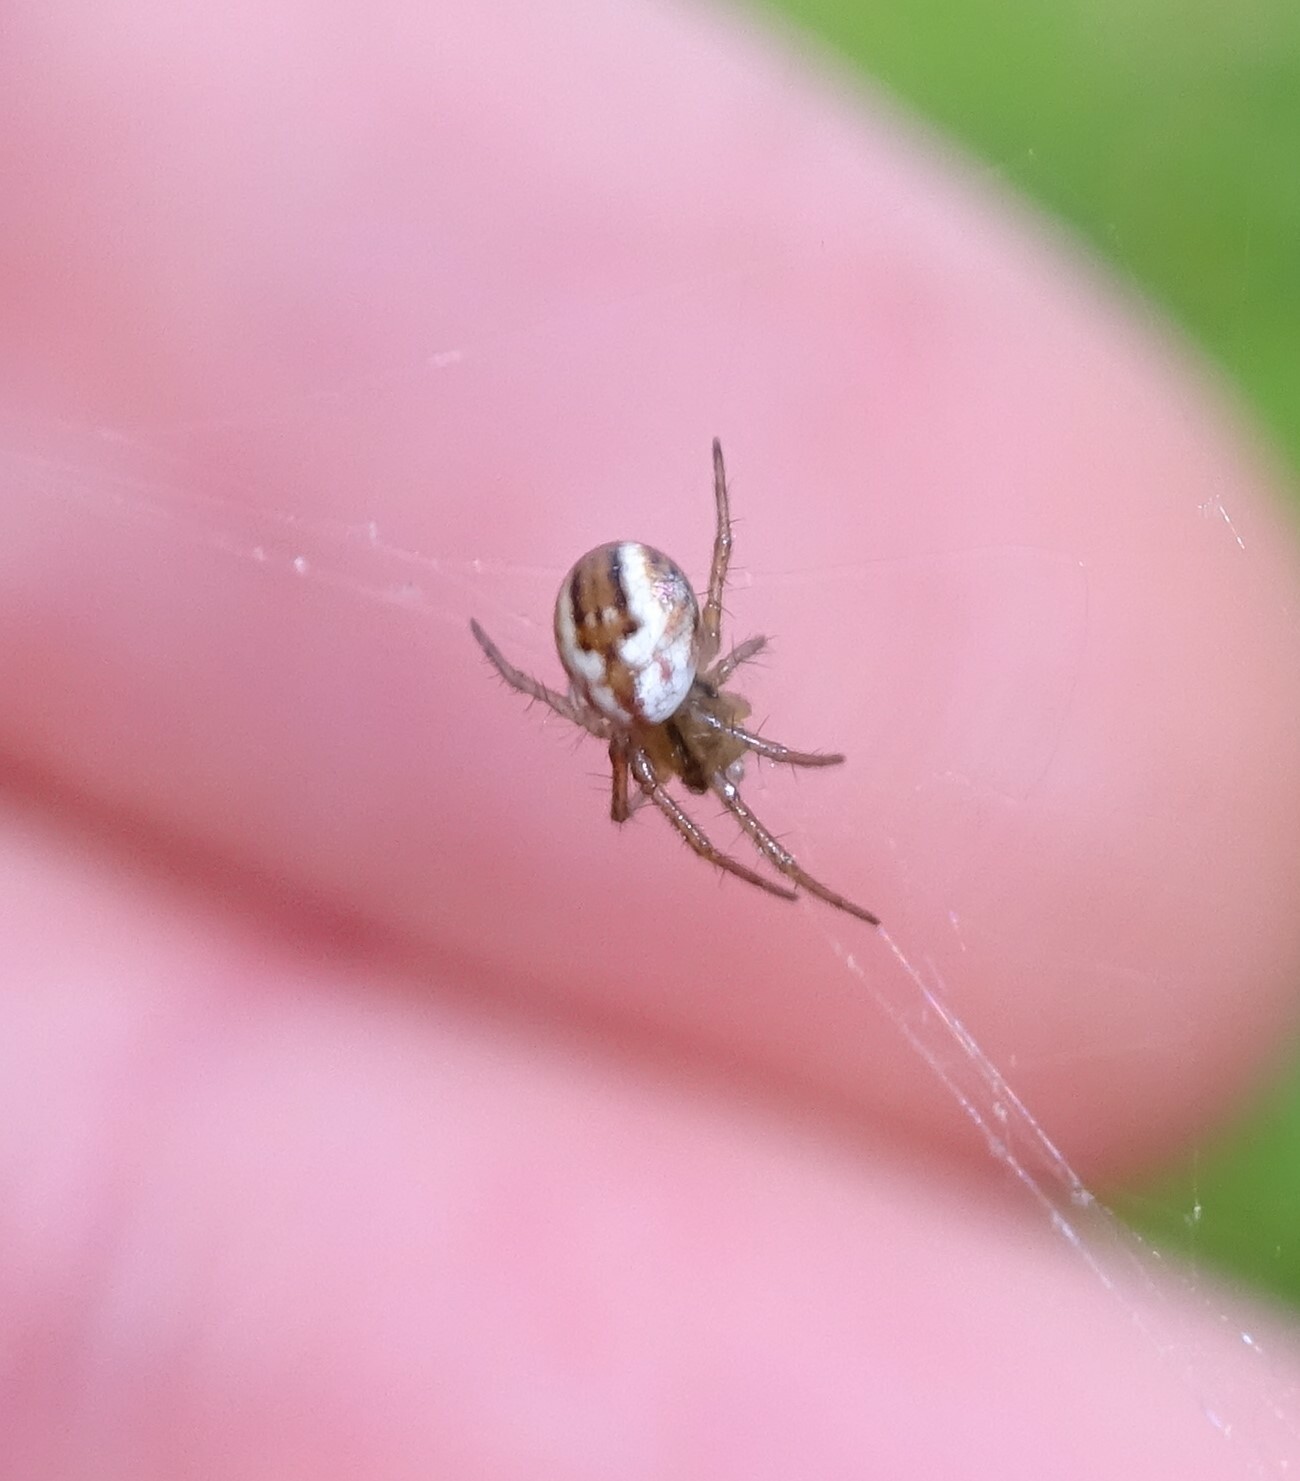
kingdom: Animalia
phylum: Arthropoda
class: Arachnida
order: Araneae
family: Araneidae
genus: Mangora
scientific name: Mangora acalypha
